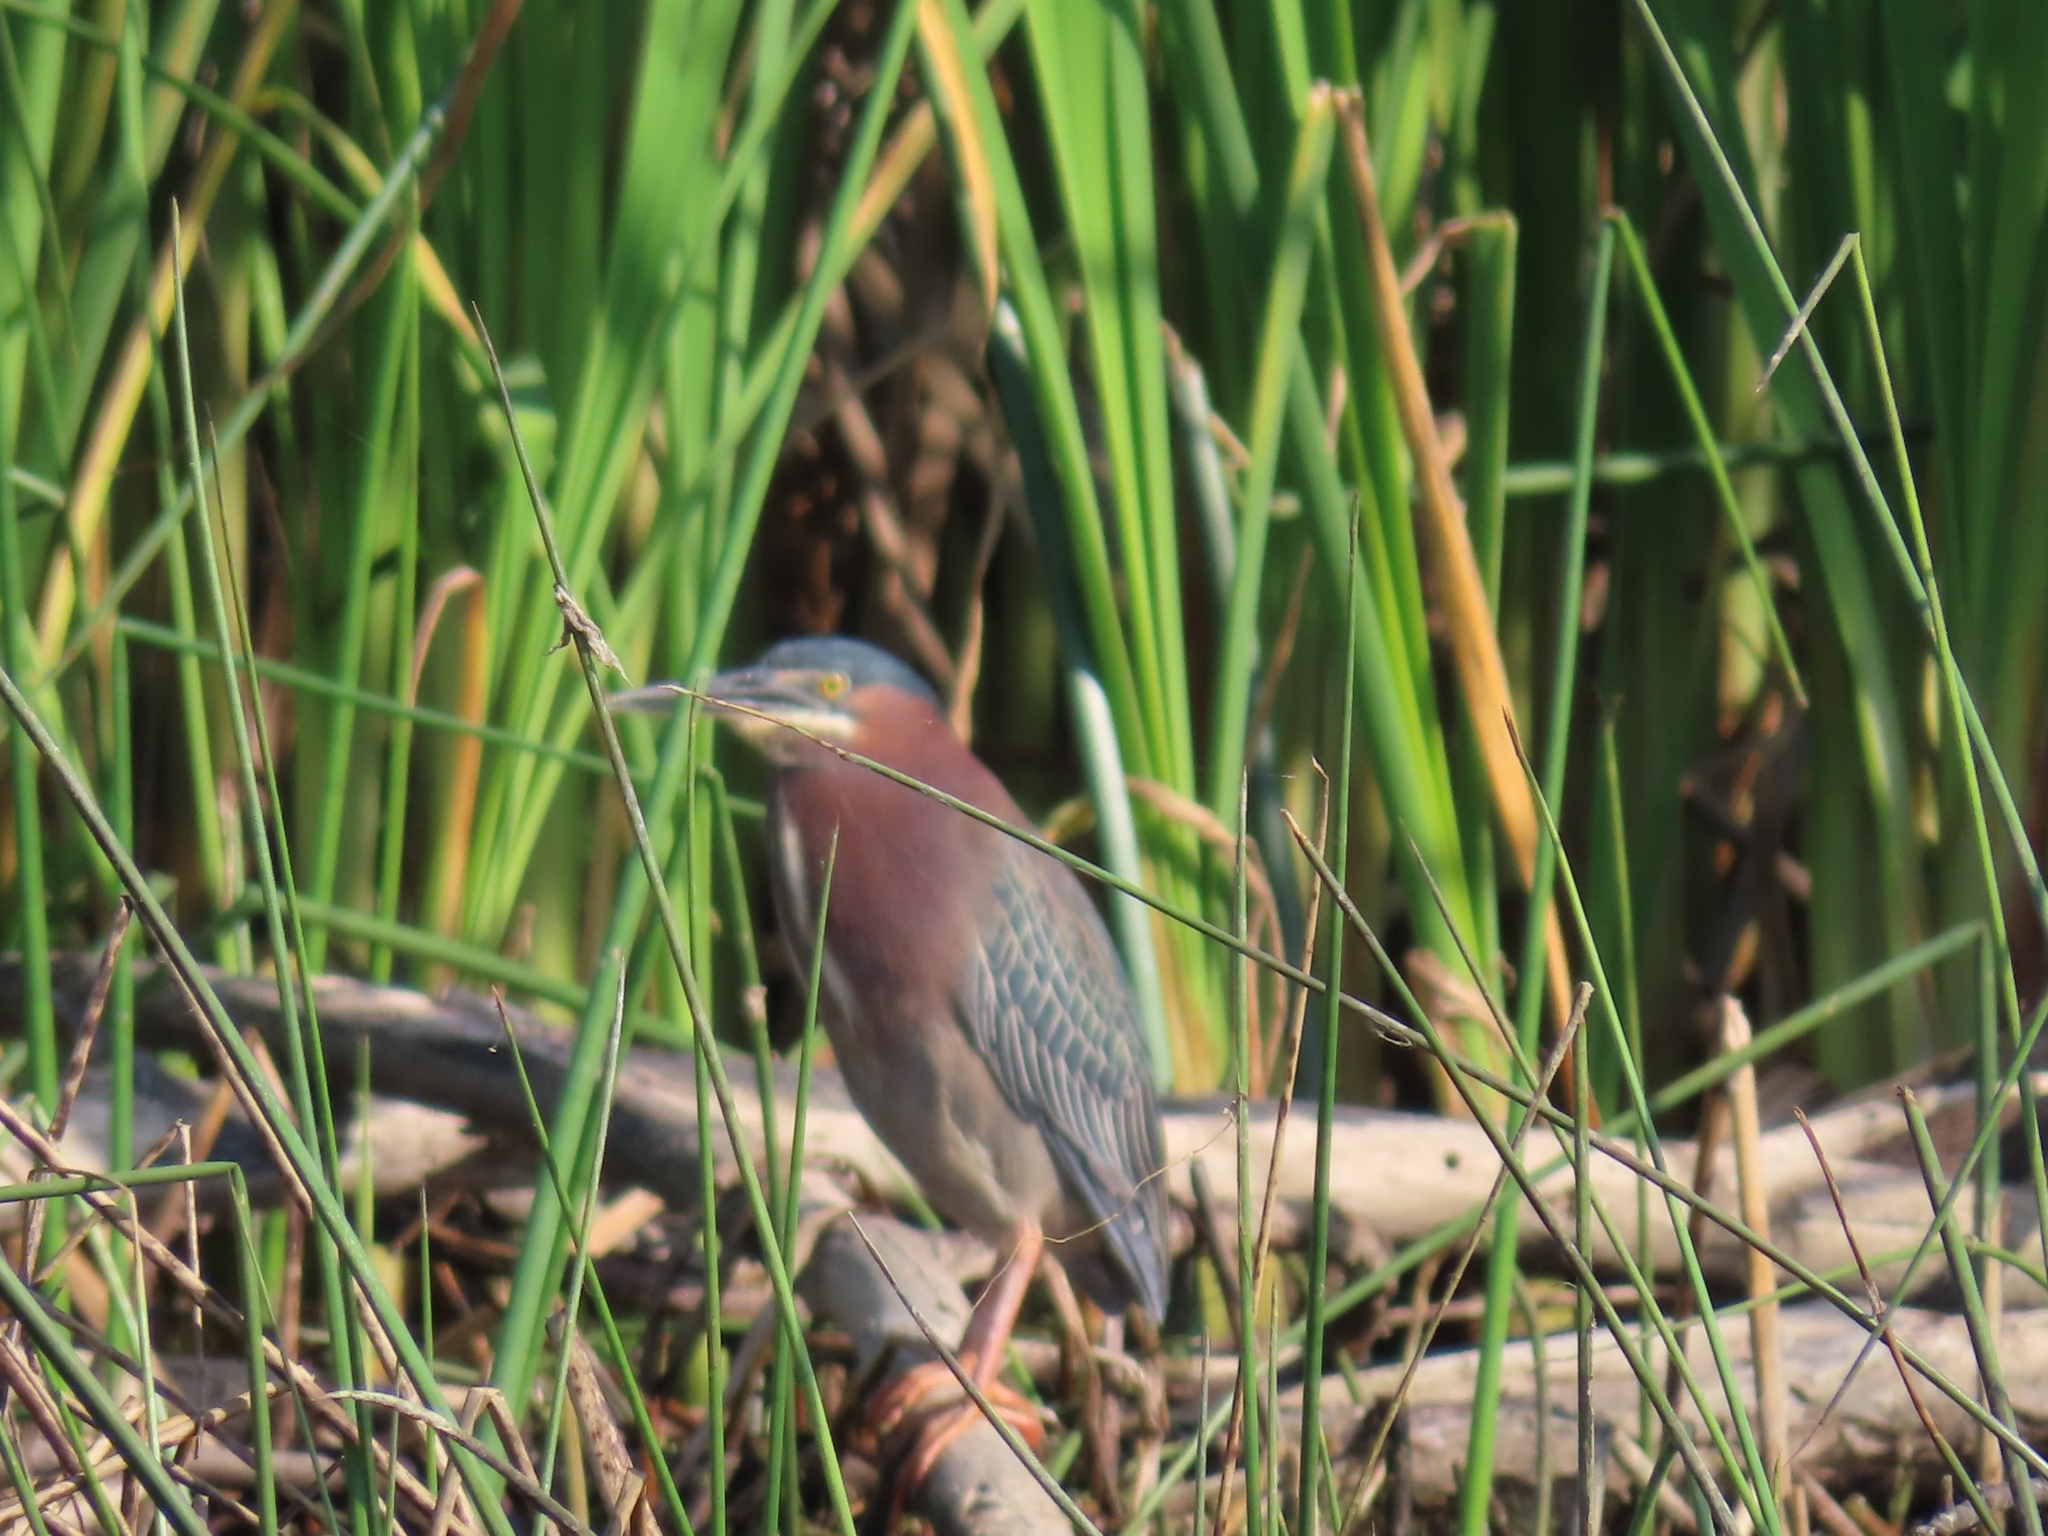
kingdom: Animalia
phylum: Chordata
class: Aves
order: Pelecaniformes
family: Ardeidae
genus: Butorides
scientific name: Butorides virescens
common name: Green heron
